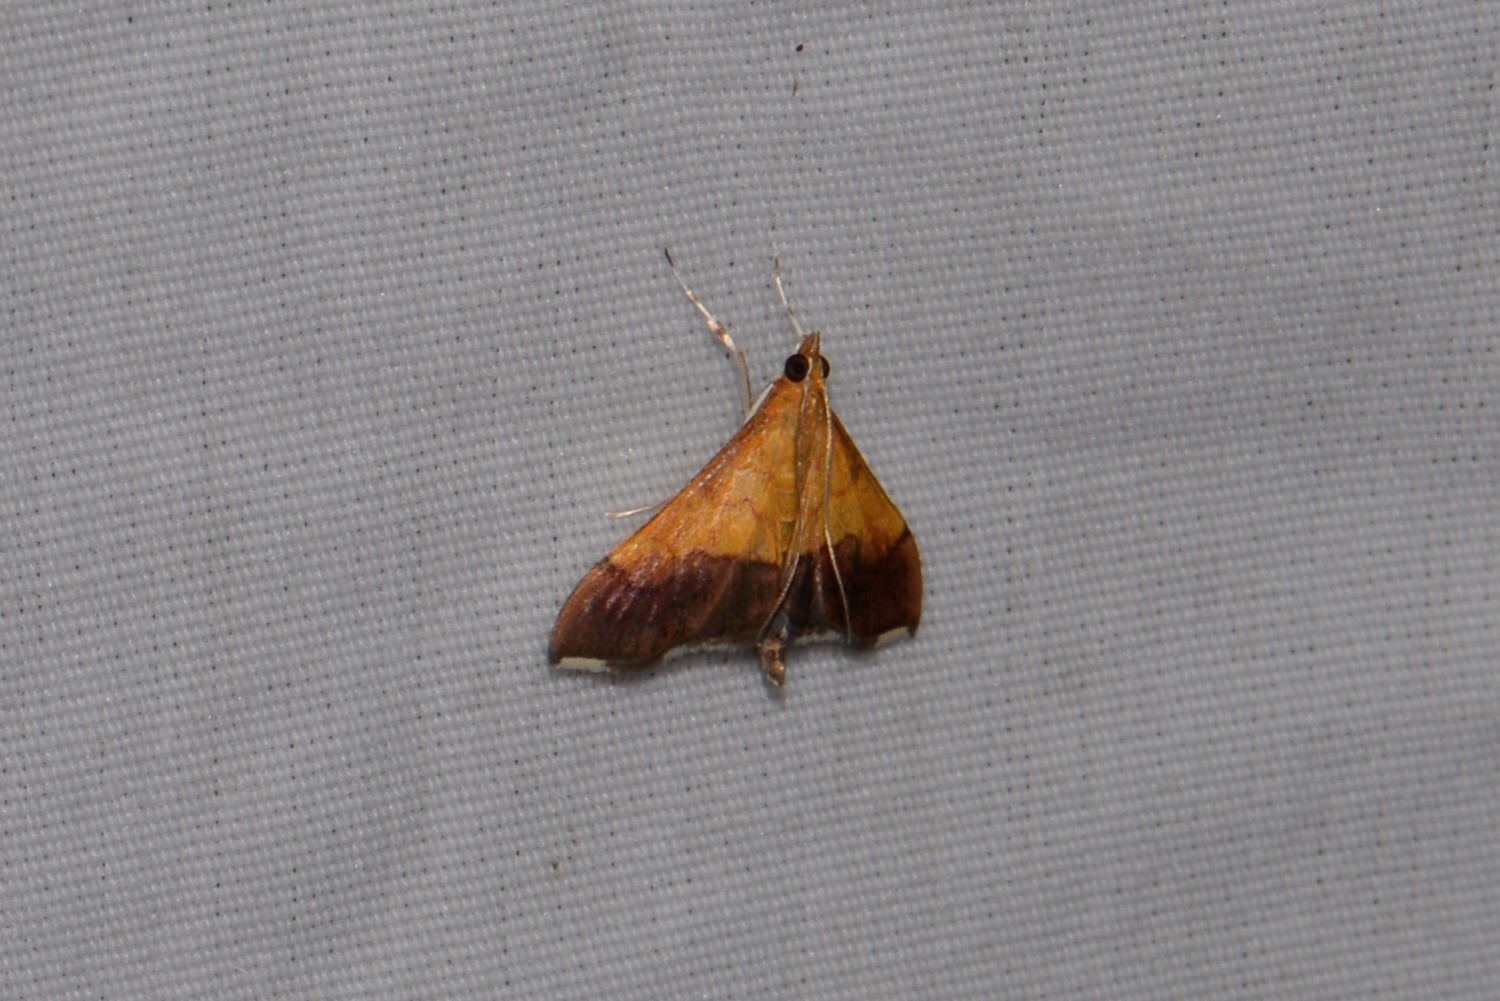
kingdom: Animalia
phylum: Arthropoda
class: Insecta
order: Lepidoptera
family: Crambidae
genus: Pyrausta
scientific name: Pyrausta bicoloralis
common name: Bicolored pyrausta moth
